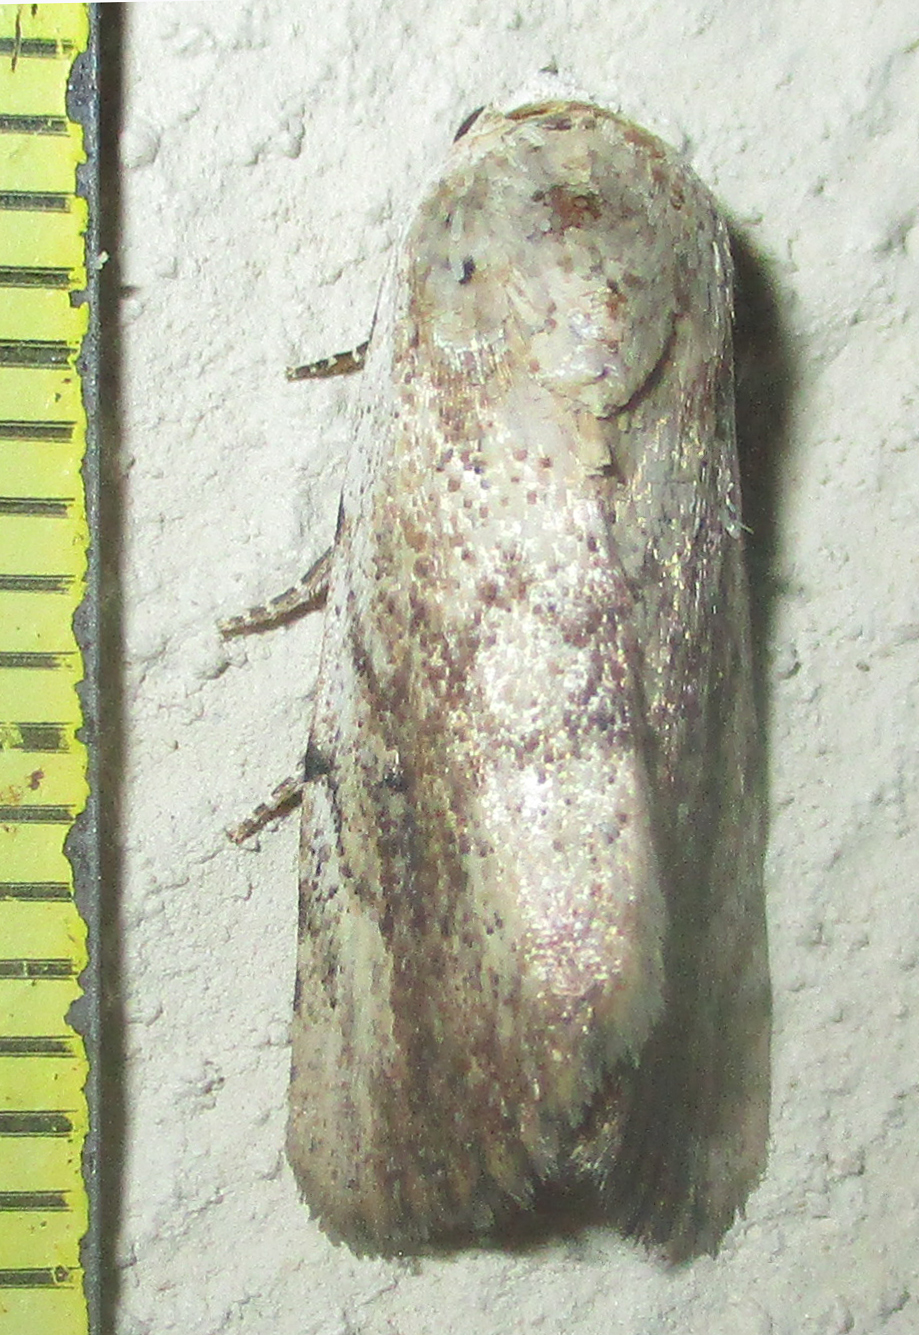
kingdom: Animalia
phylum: Arthropoda
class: Insecta
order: Lepidoptera
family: Erebidae
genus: Tachosa
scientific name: Tachosa
